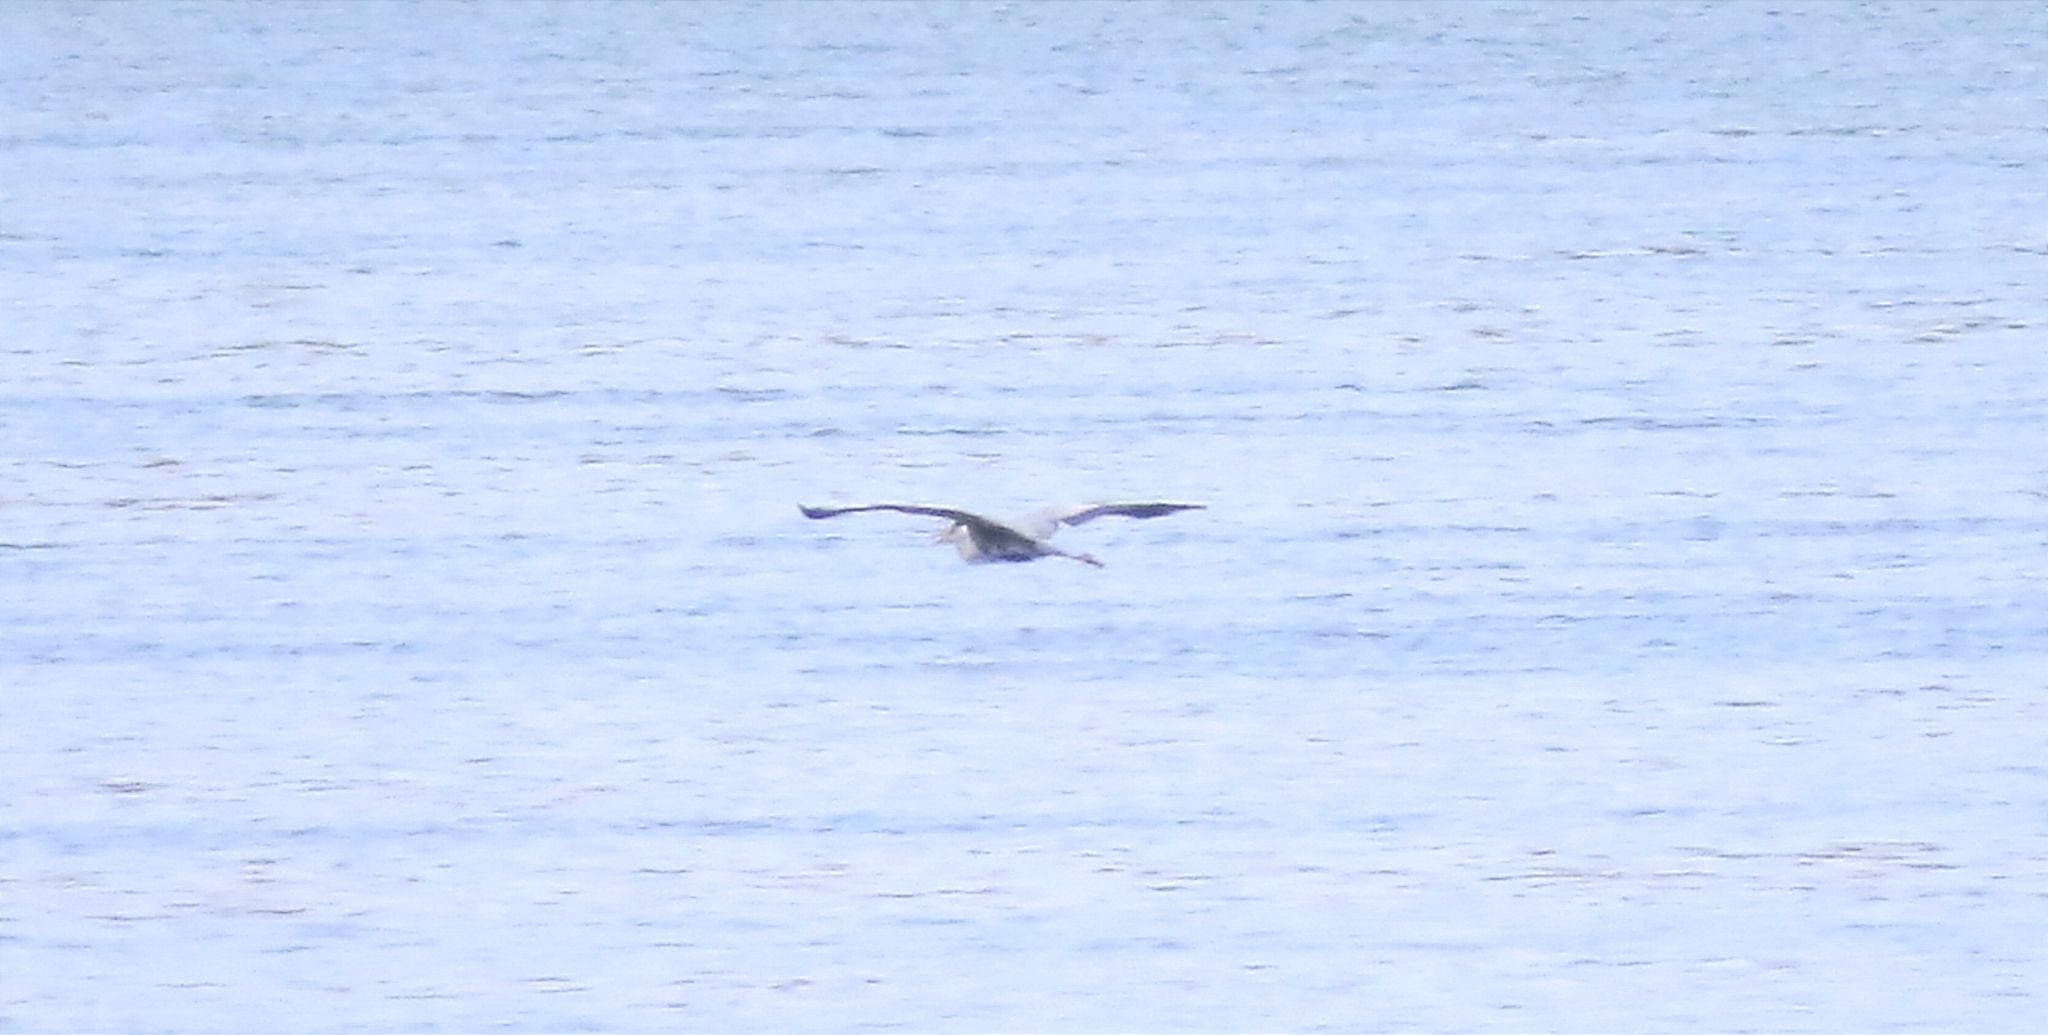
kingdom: Animalia
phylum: Chordata
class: Aves
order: Pelecaniformes
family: Ardeidae
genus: Ardea
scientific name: Ardea cinerea
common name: Grey heron
